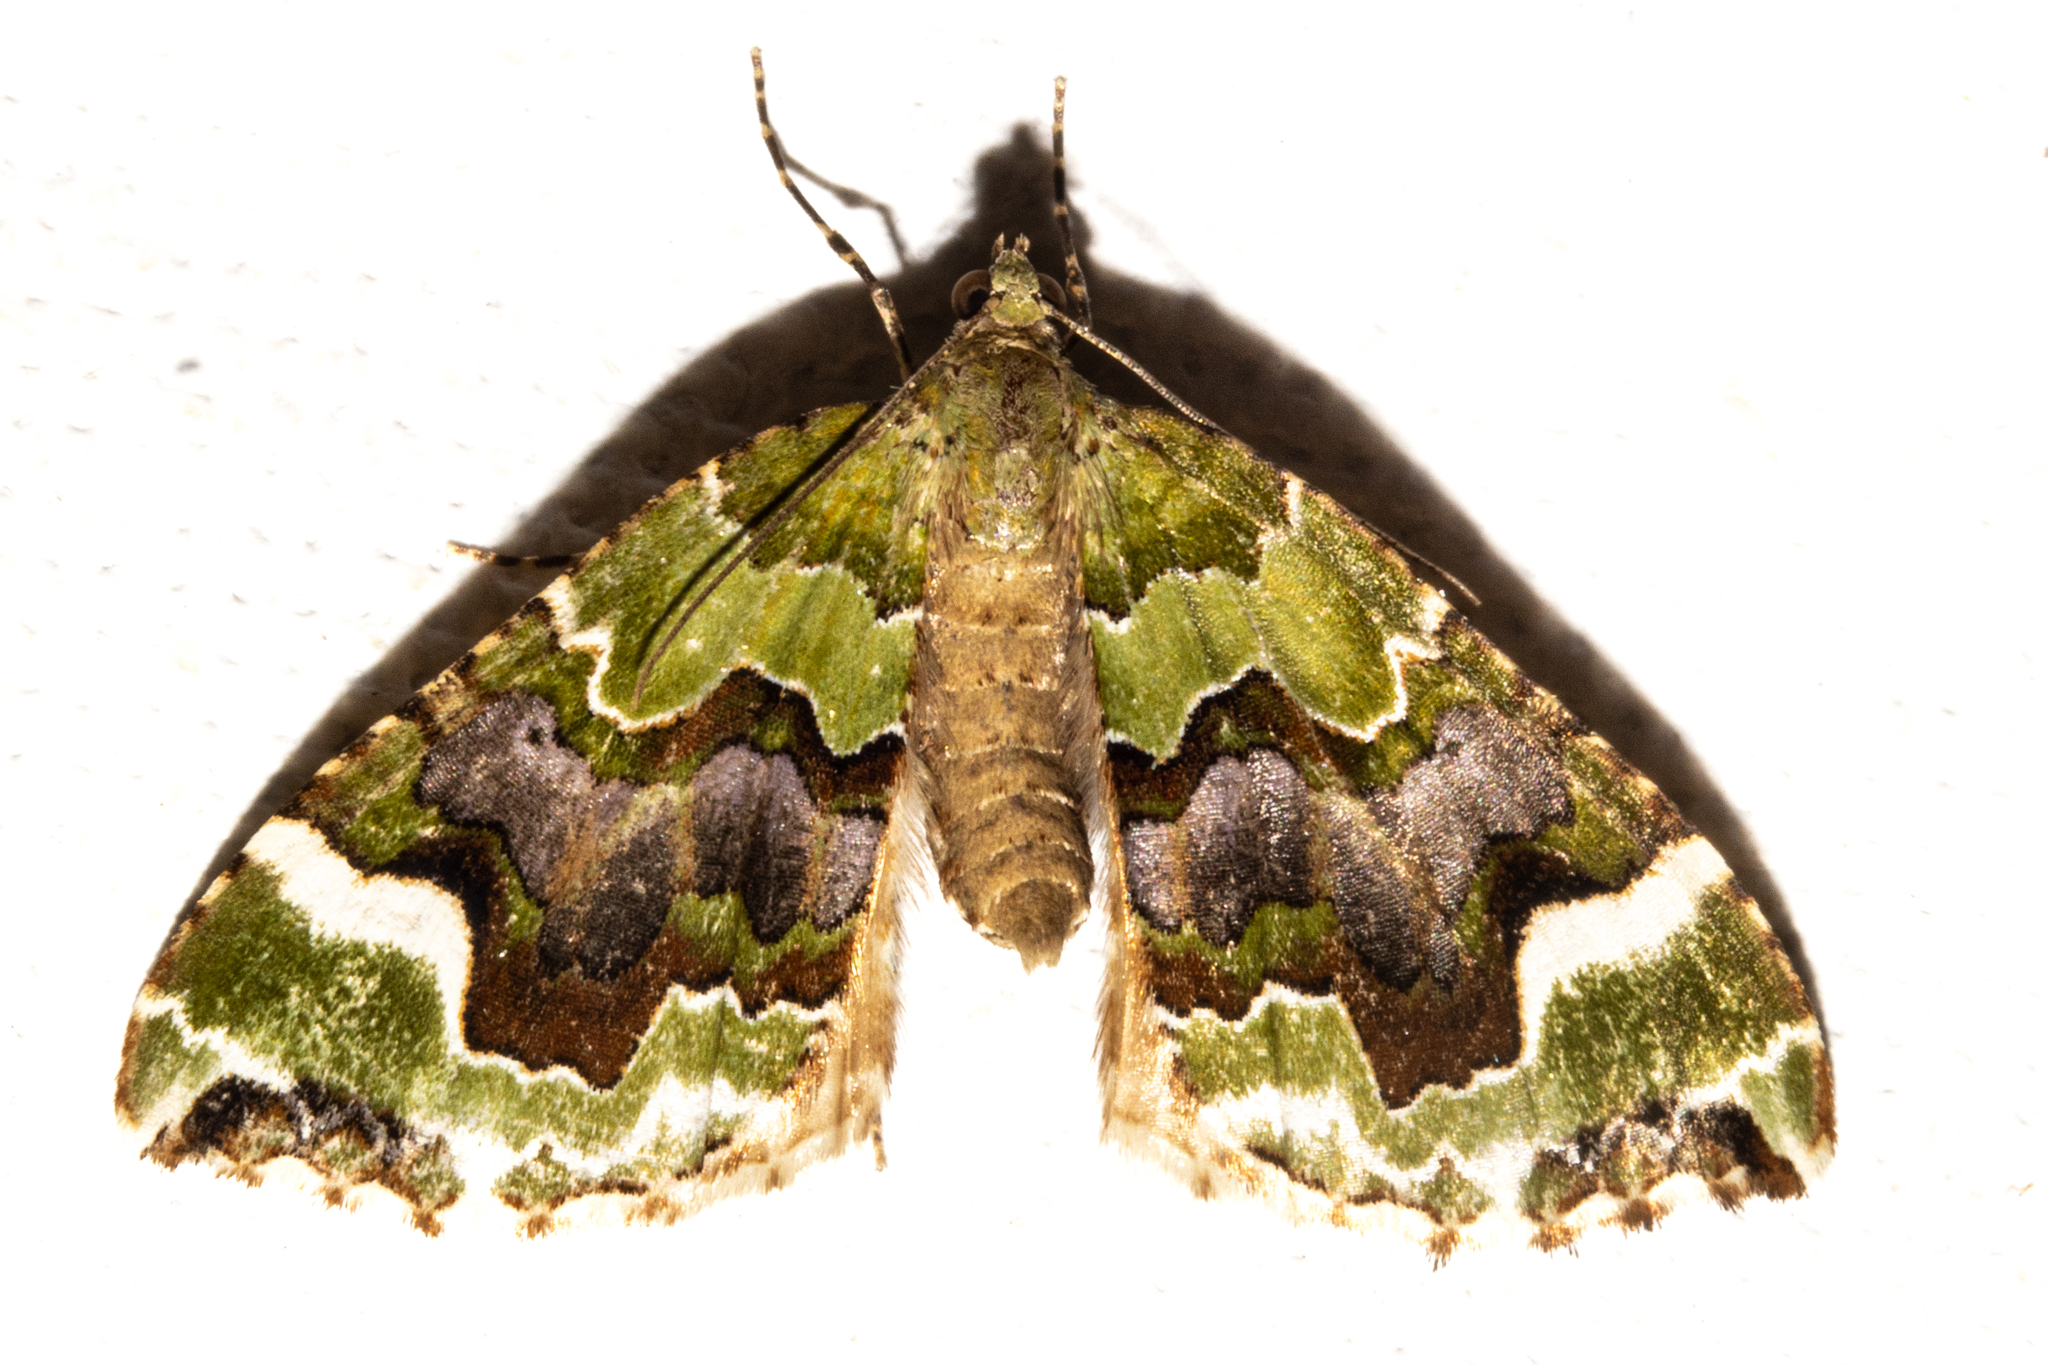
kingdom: Animalia
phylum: Arthropoda
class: Insecta
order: Lepidoptera
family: Geometridae
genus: Hydriomena
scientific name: Hydriomena purpurifera
